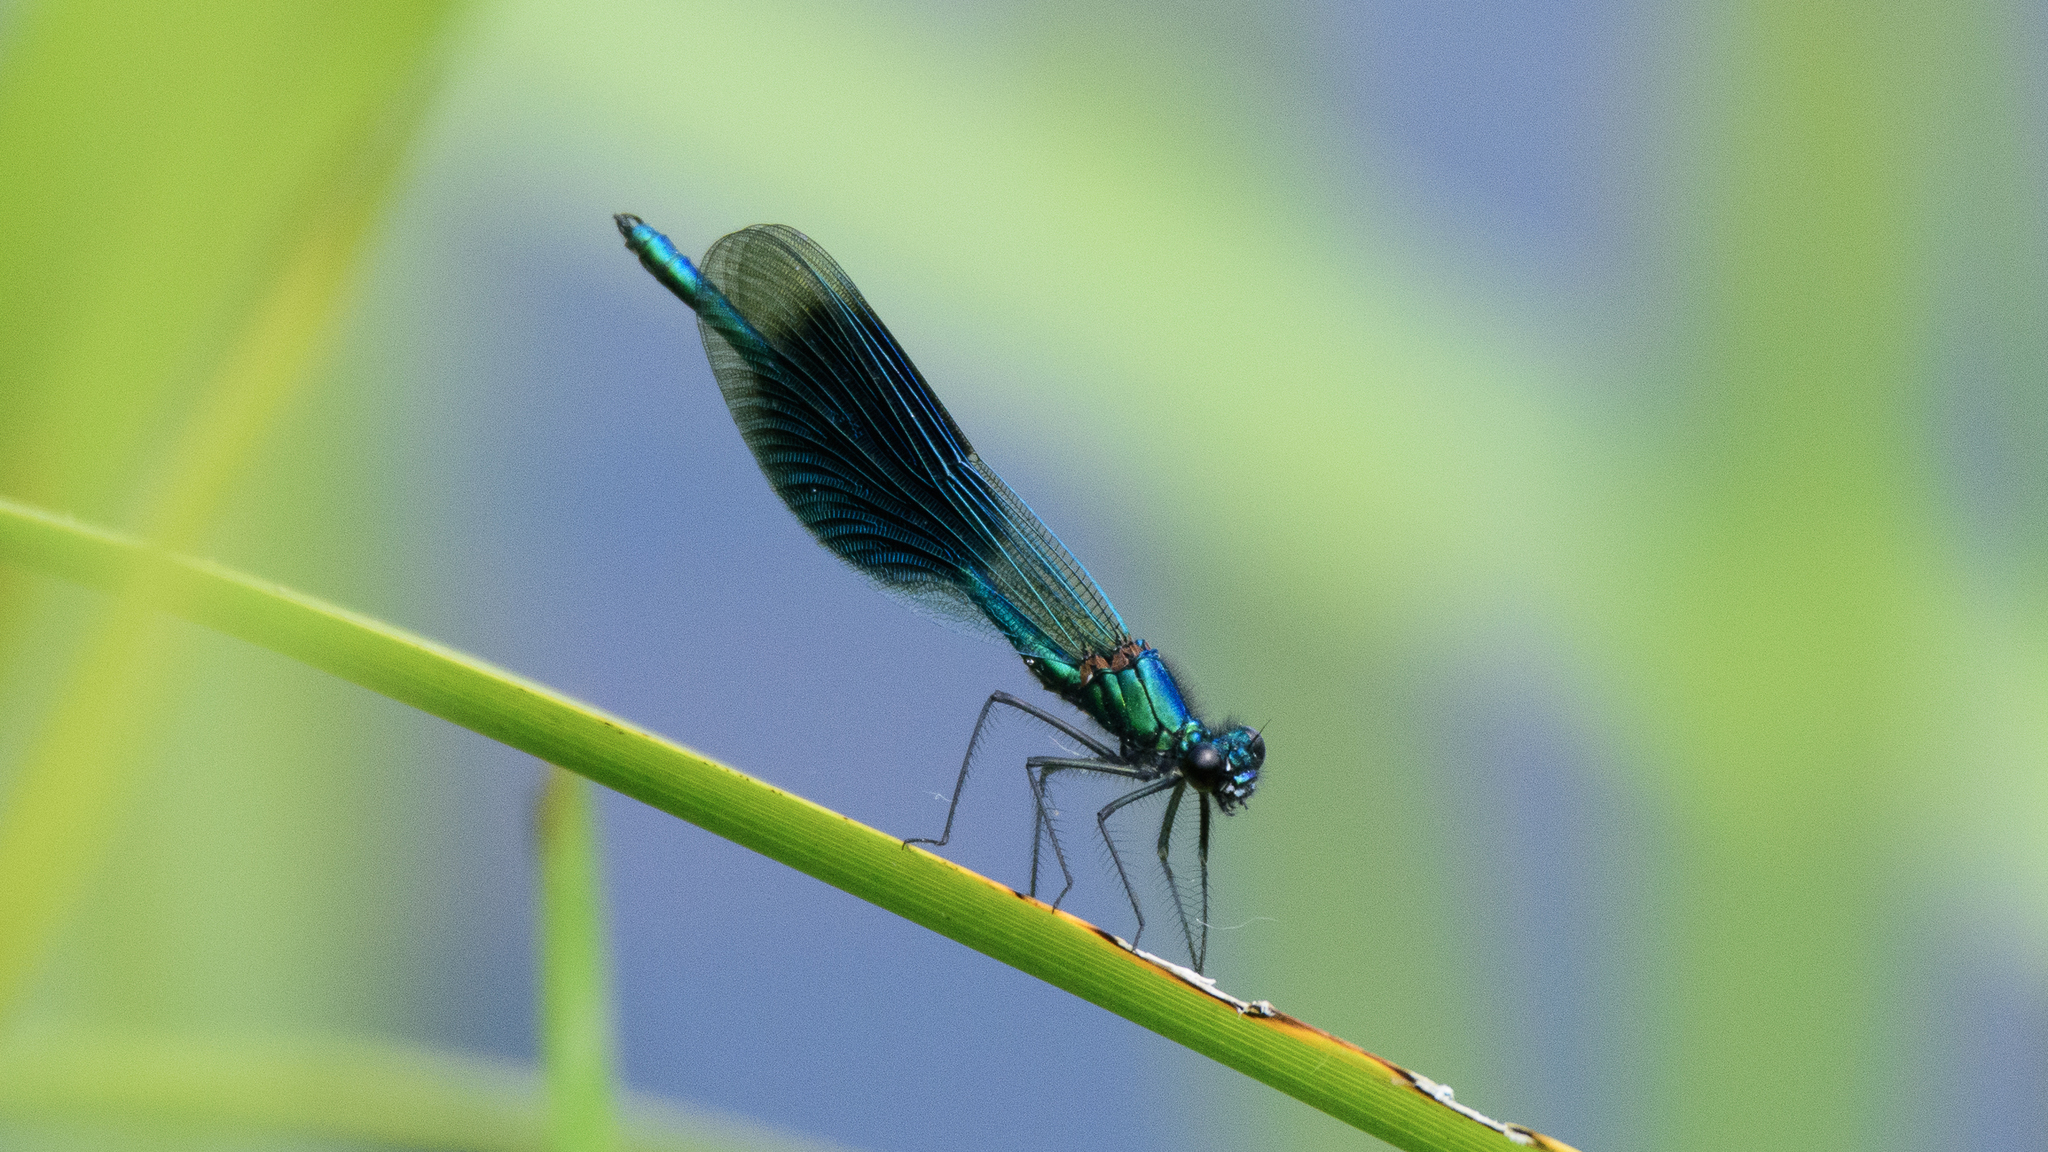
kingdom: Animalia
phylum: Arthropoda
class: Insecta
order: Odonata
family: Calopterygidae
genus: Calopteryx
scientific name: Calopteryx splendens
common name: Banded demoiselle
